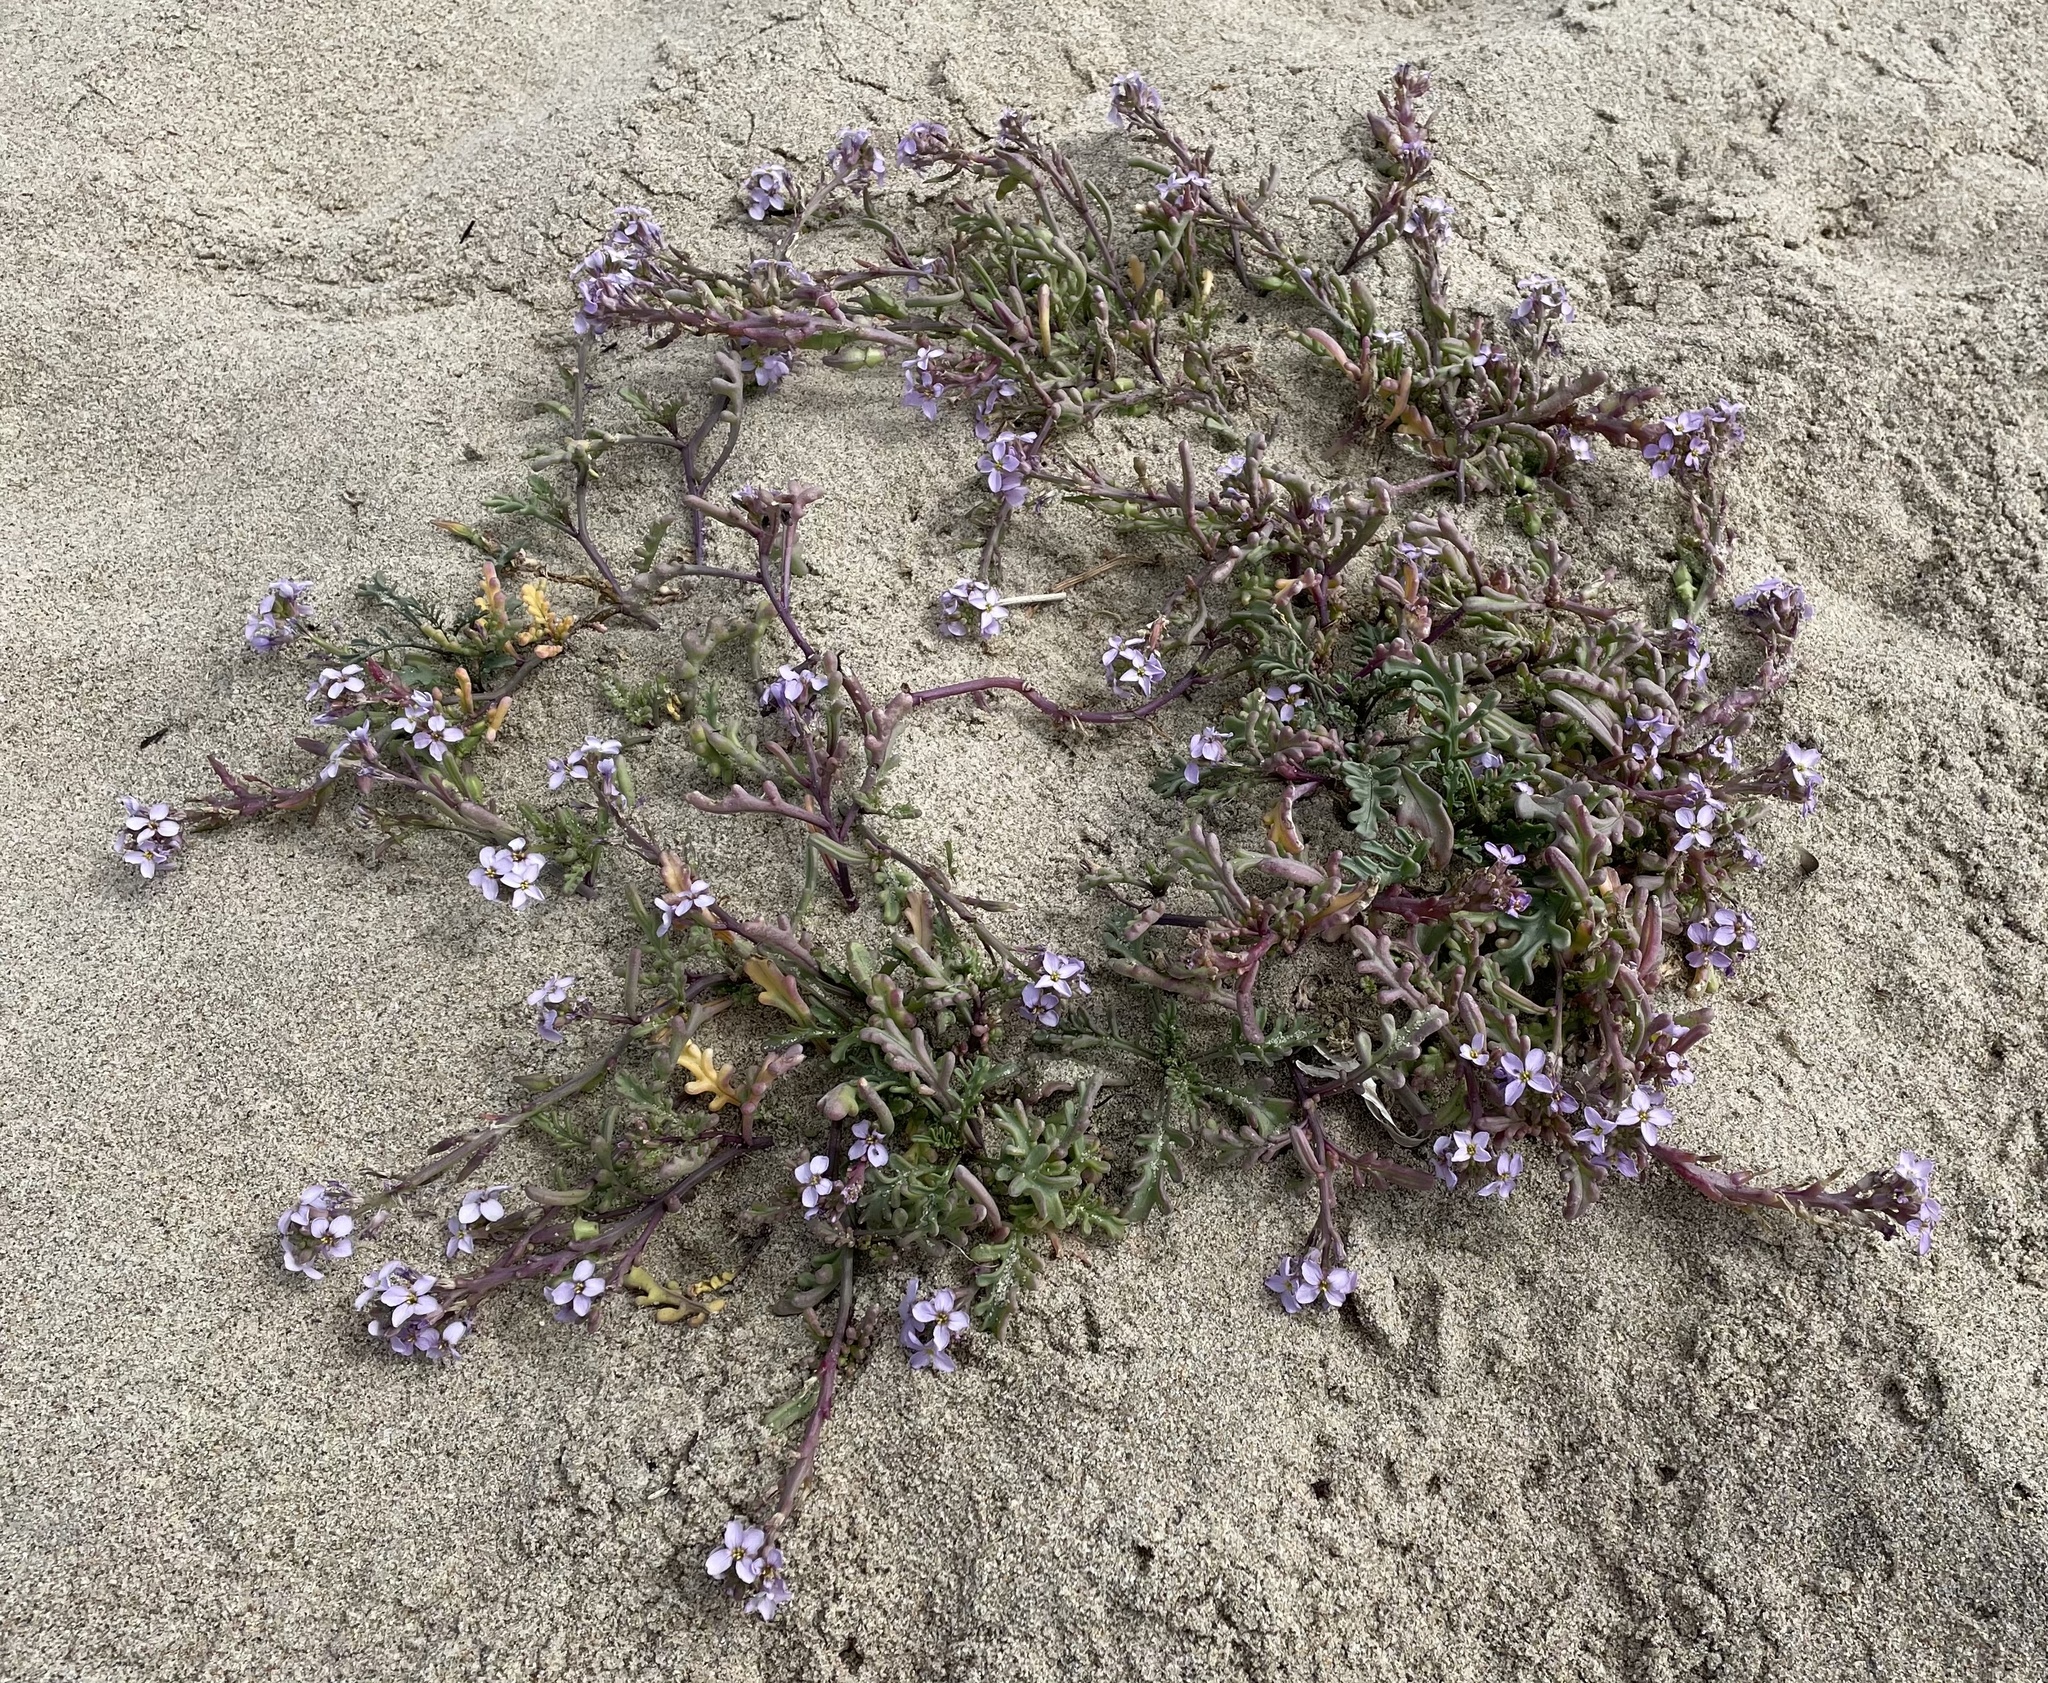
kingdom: Plantae
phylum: Tracheophyta
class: Magnoliopsida
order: Brassicales
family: Brassicaceae
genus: Cakile
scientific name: Cakile maritima
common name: Sea rocket
